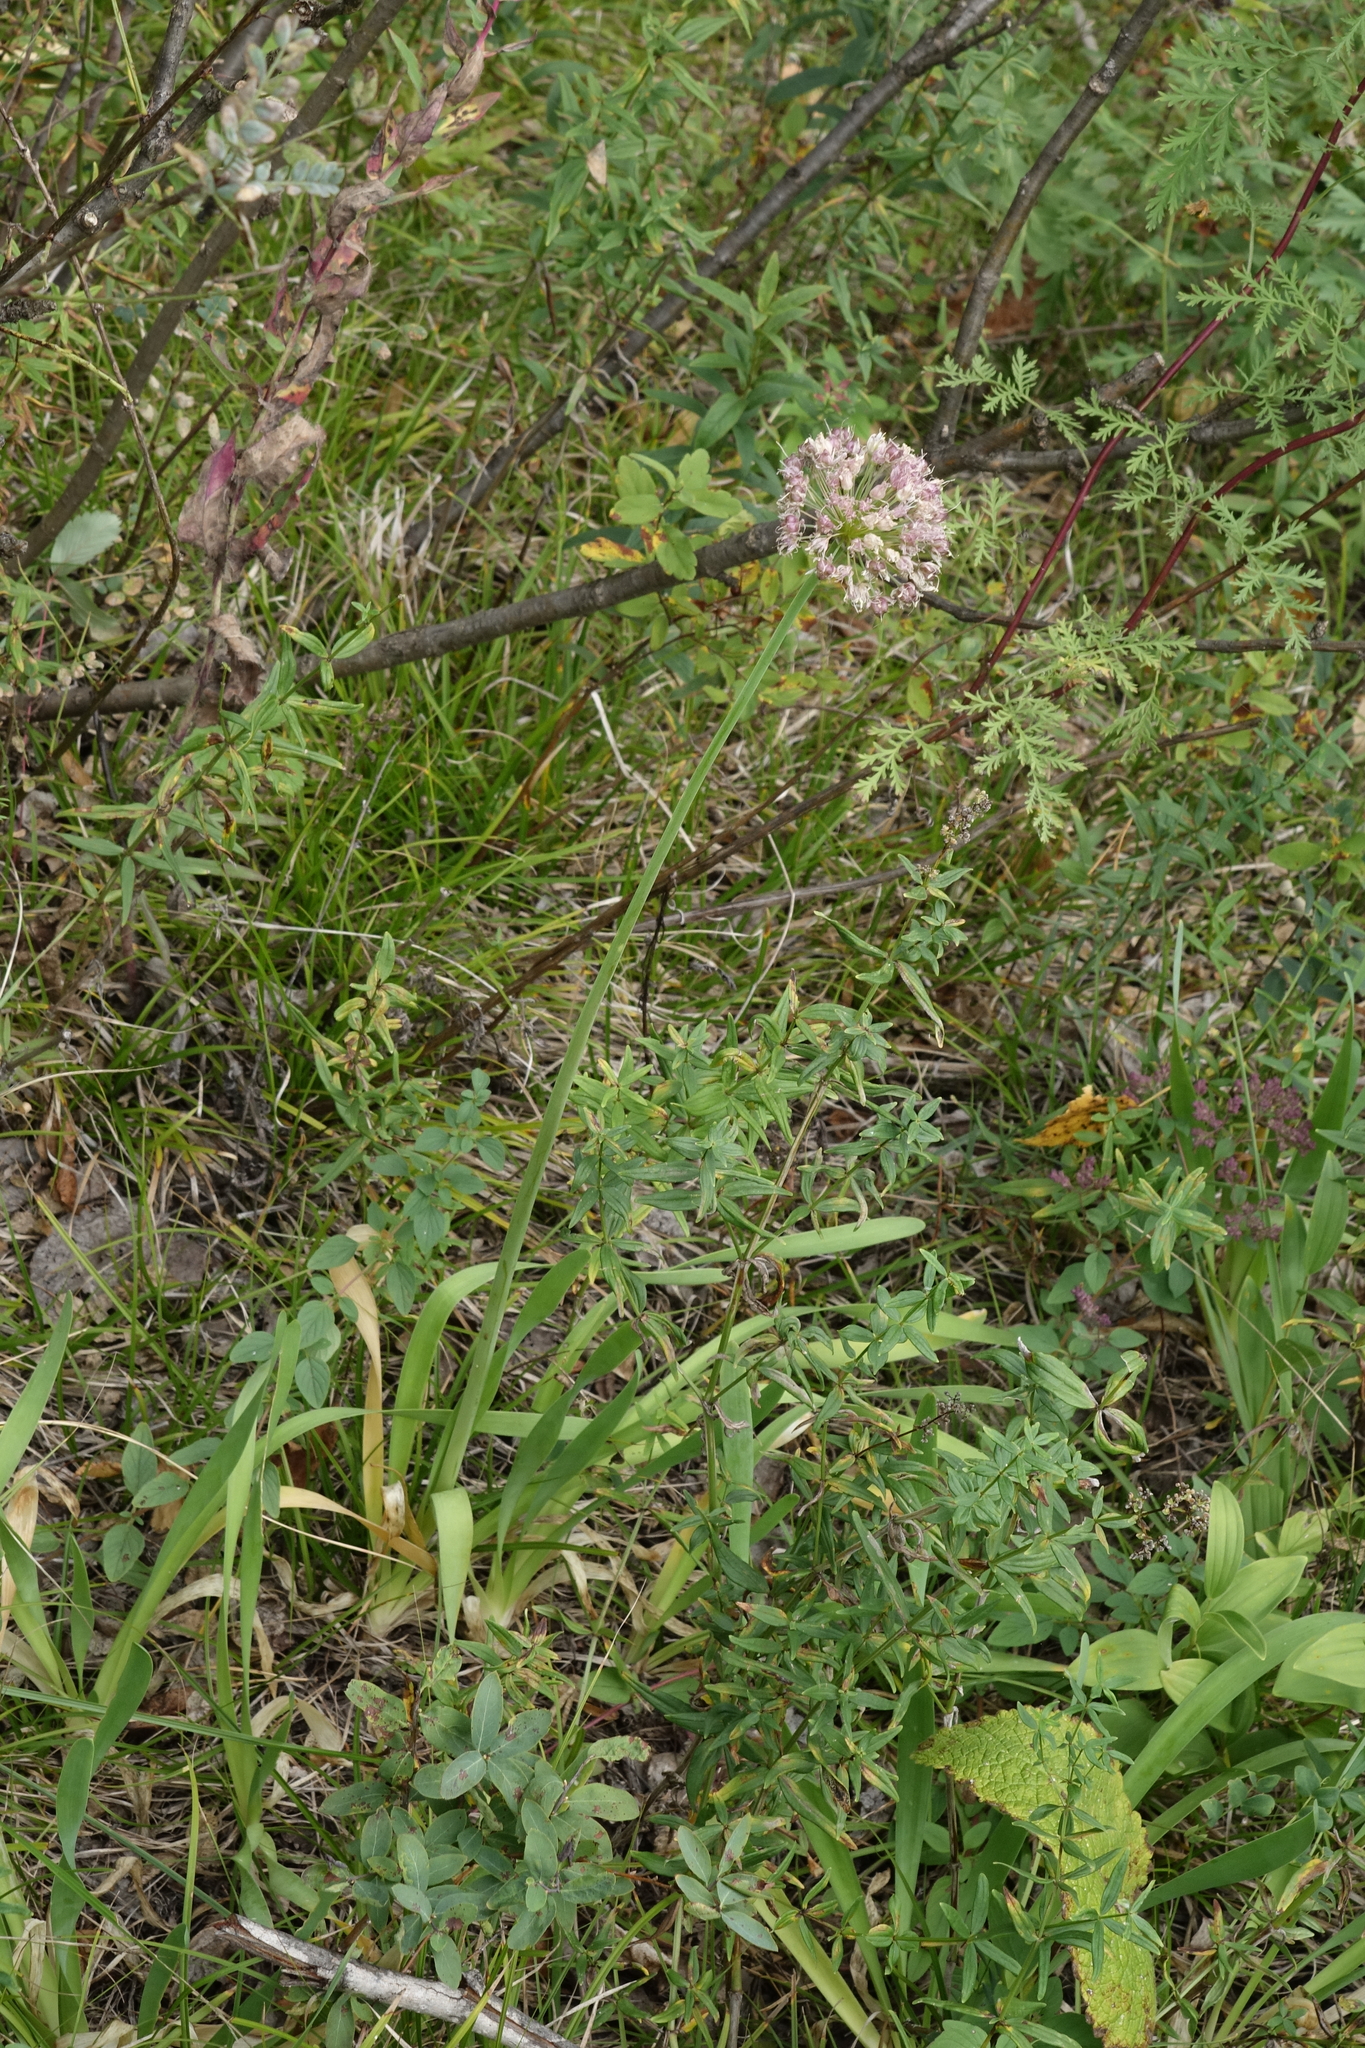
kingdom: Plantae
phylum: Tracheophyta
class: Liliopsida
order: Asparagales
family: Amaryllidaceae
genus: Allium
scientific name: Allium nutans
